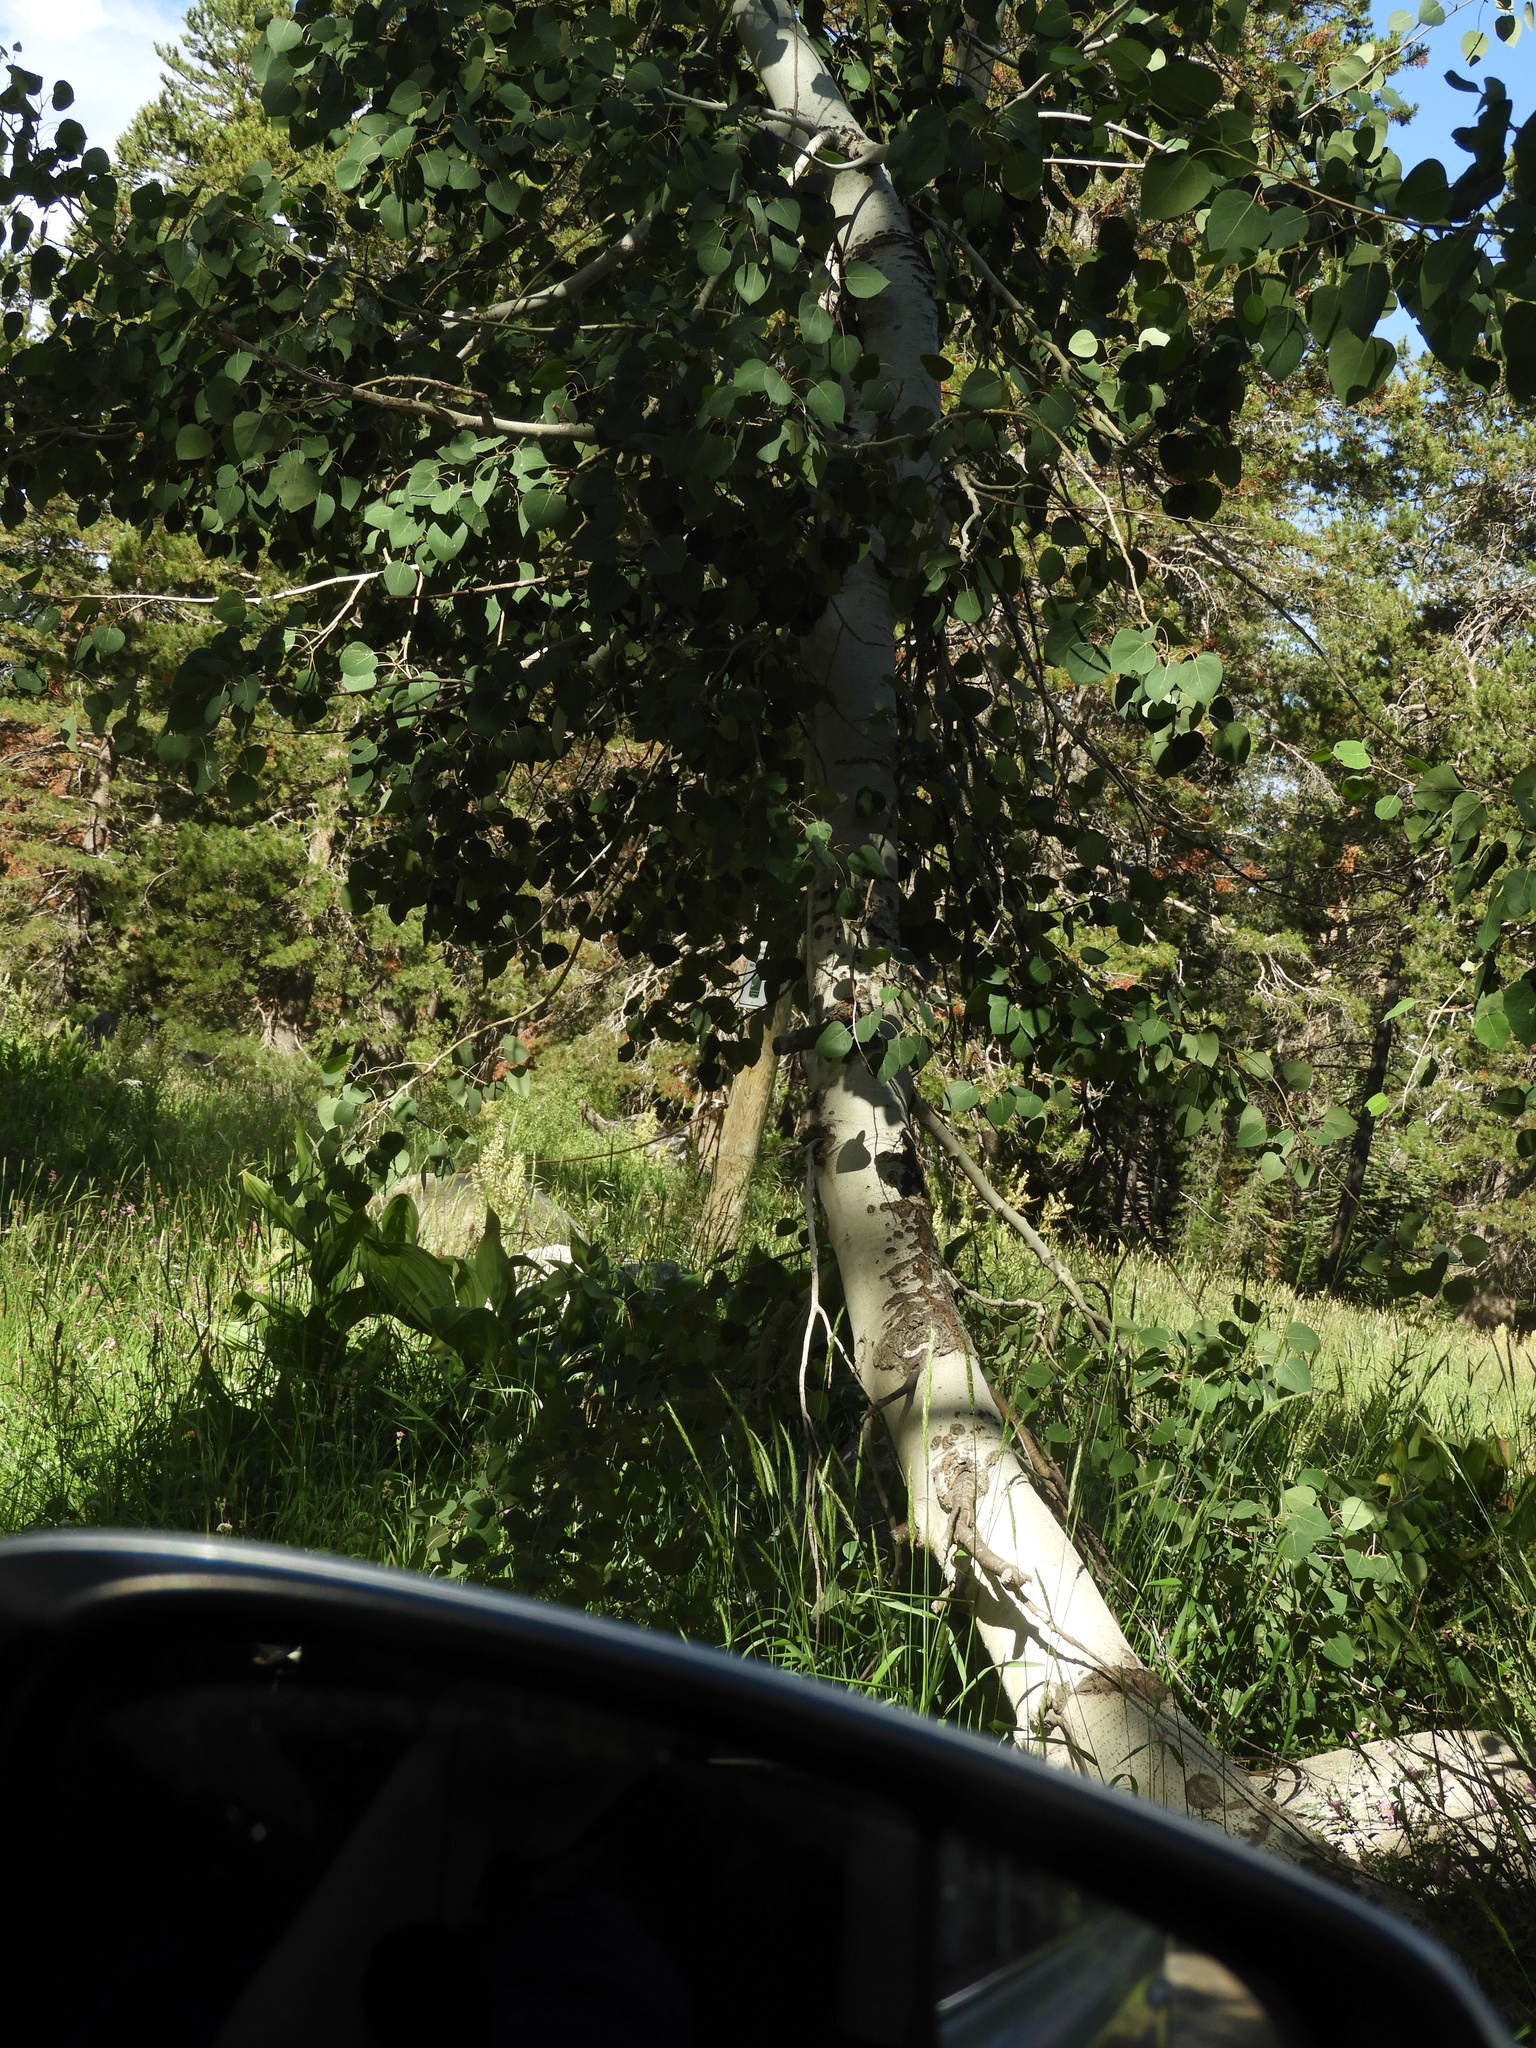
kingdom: Plantae
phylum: Tracheophyta
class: Magnoliopsida
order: Malpighiales
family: Salicaceae
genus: Populus
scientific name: Populus tremuloides
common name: Quaking aspen
